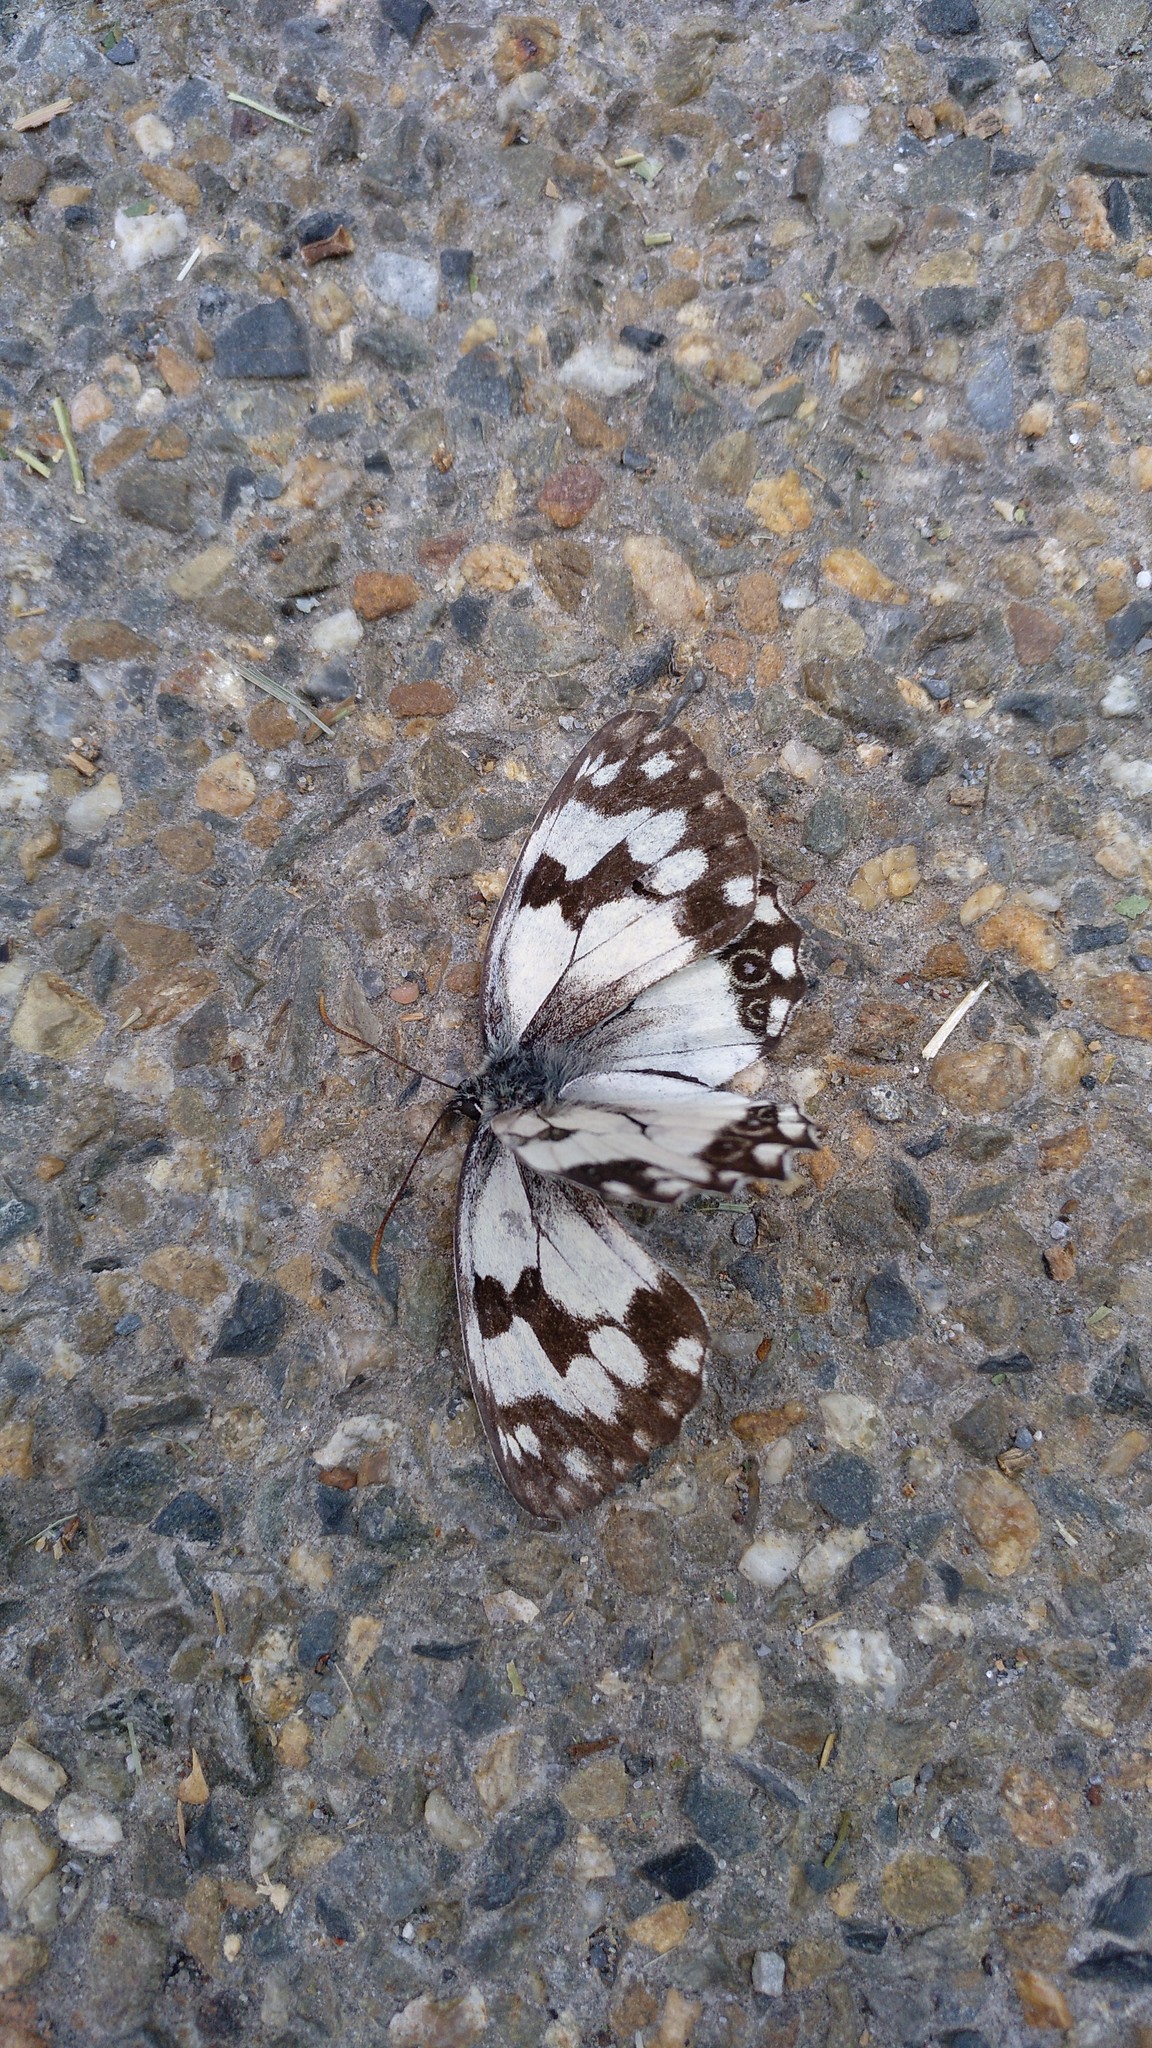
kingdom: Animalia
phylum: Arthropoda
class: Insecta
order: Lepidoptera
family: Nymphalidae
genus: Melanargia
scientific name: Melanargia lachesis
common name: Iberian marbled white
